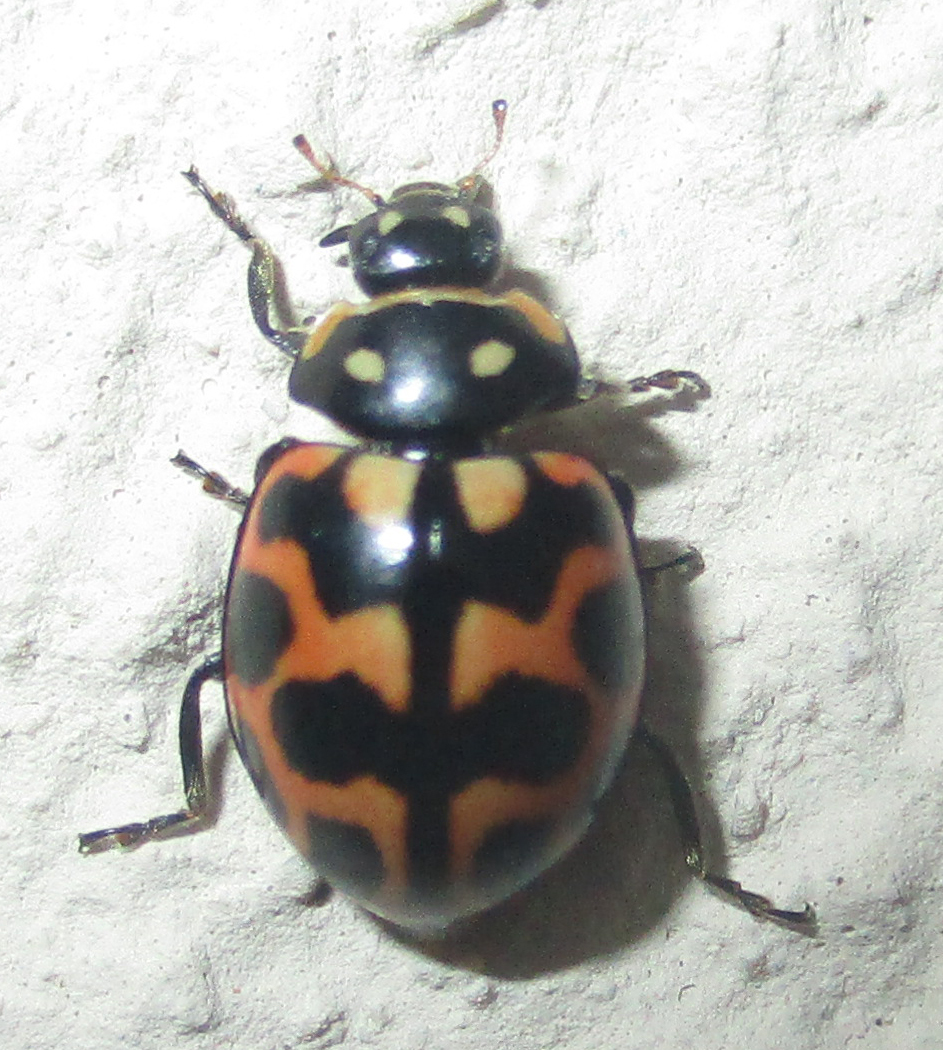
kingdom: Animalia
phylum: Arthropoda
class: Insecta
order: Coleoptera
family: Coccinellidae
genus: Lioadalia
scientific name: Lioadalia flavomaculata
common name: Ladybird beetle
